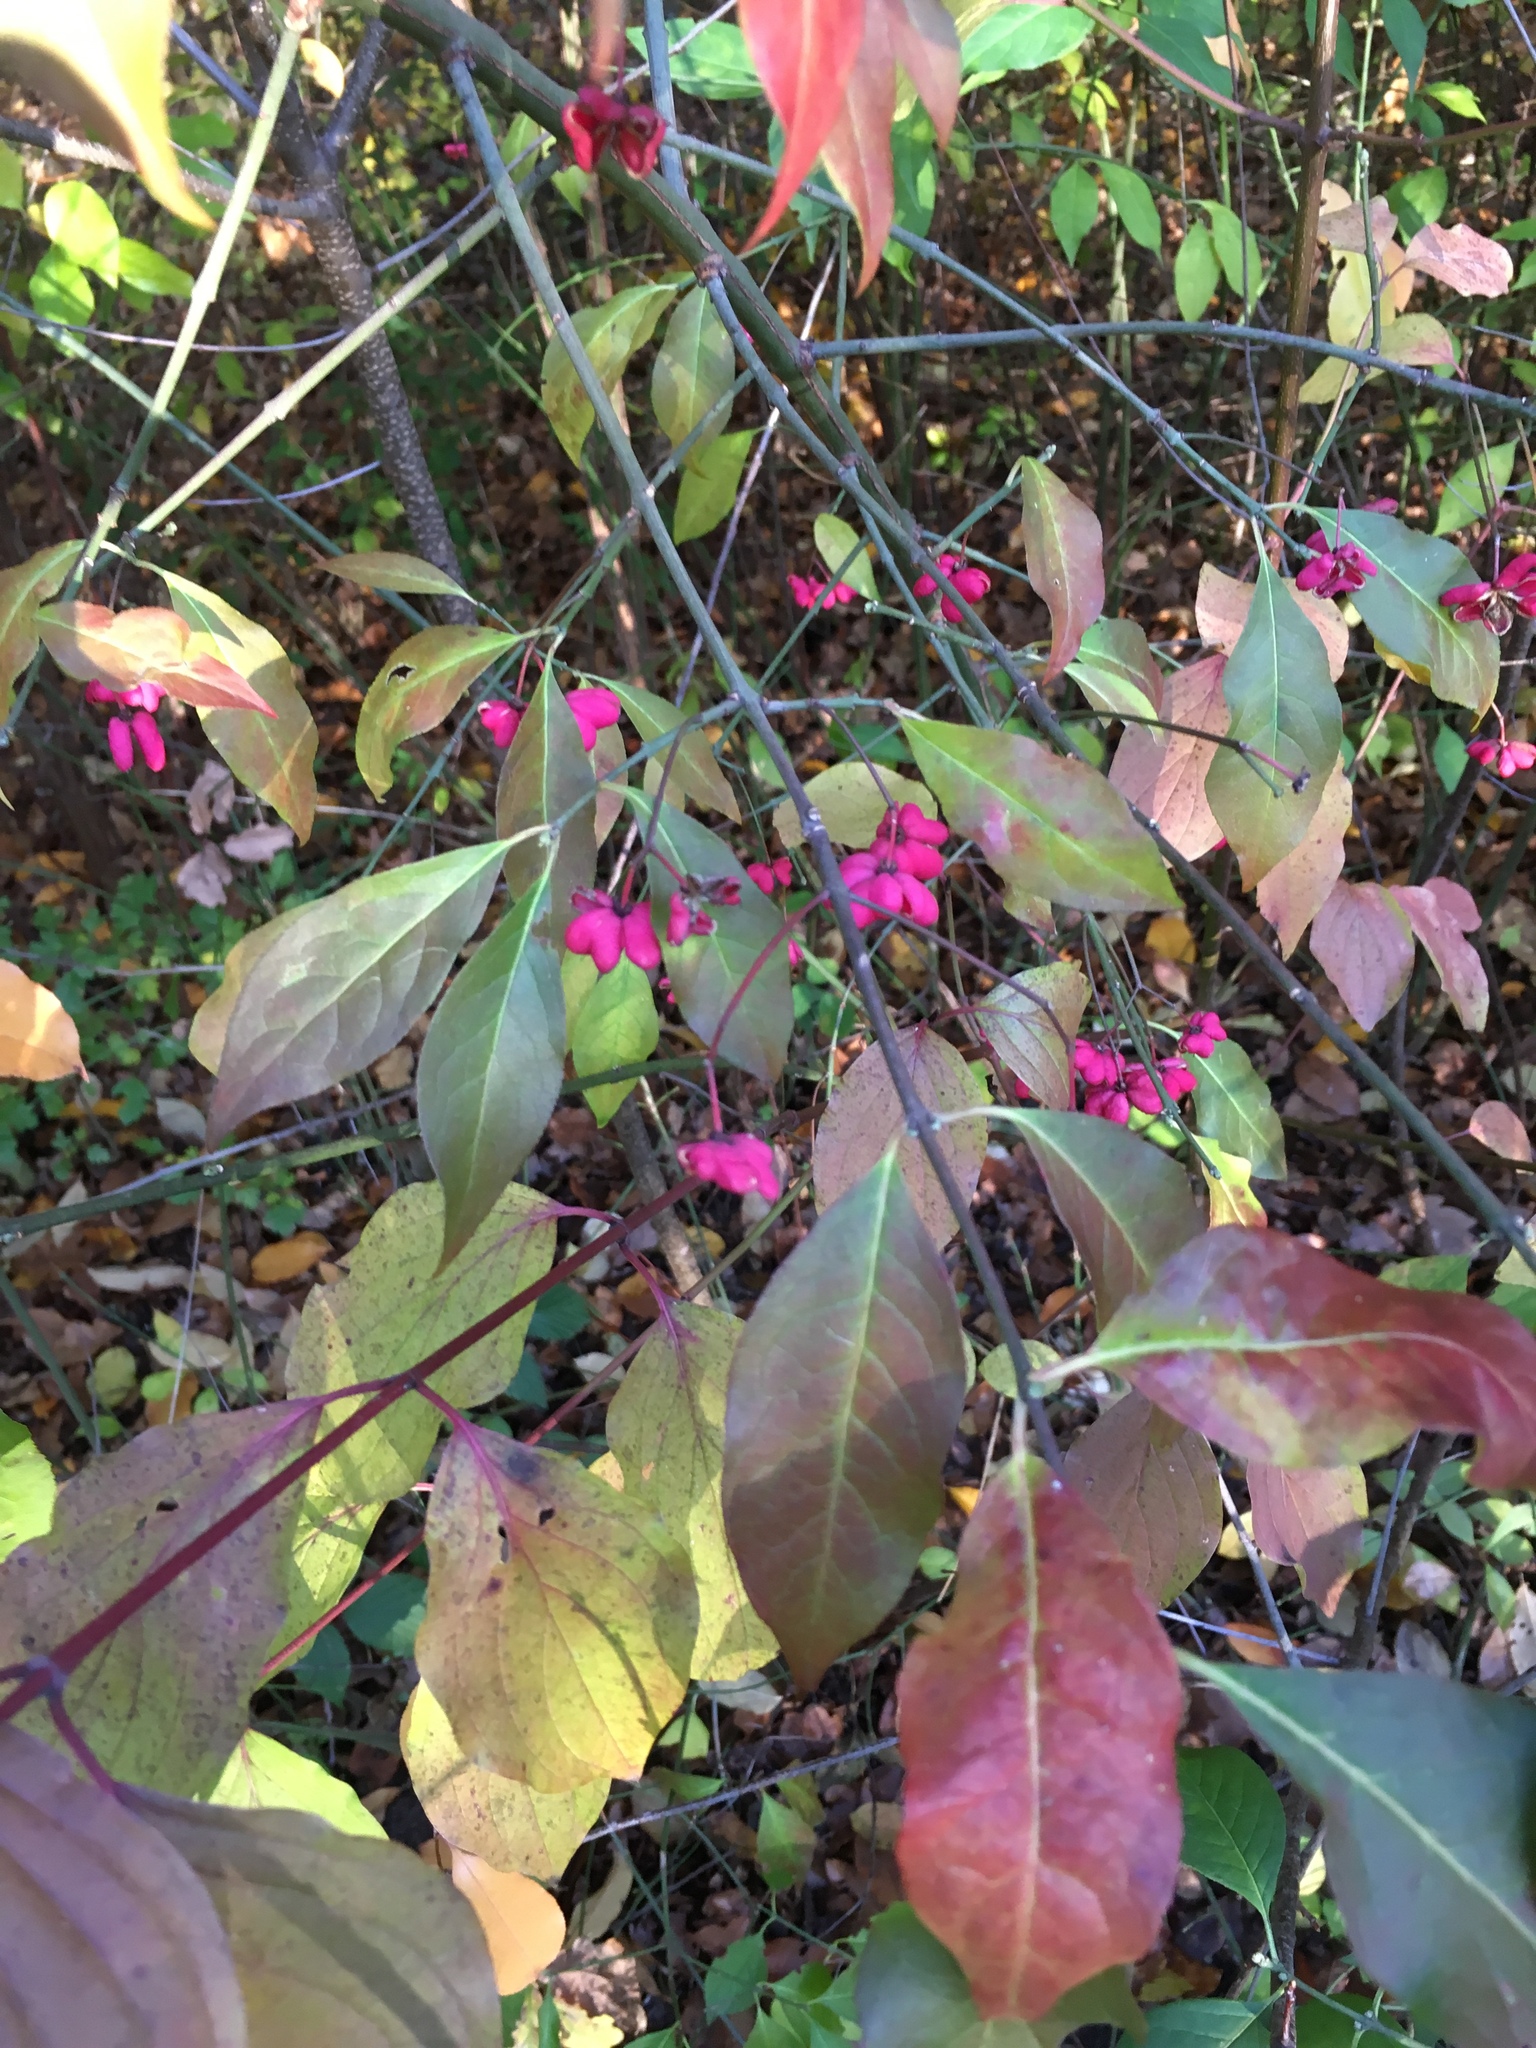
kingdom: Plantae
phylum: Tracheophyta
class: Magnoliopsida
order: Celastrales
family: Celastraceae
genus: Euonymus
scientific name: Euonymus europaeus
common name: Spindle
